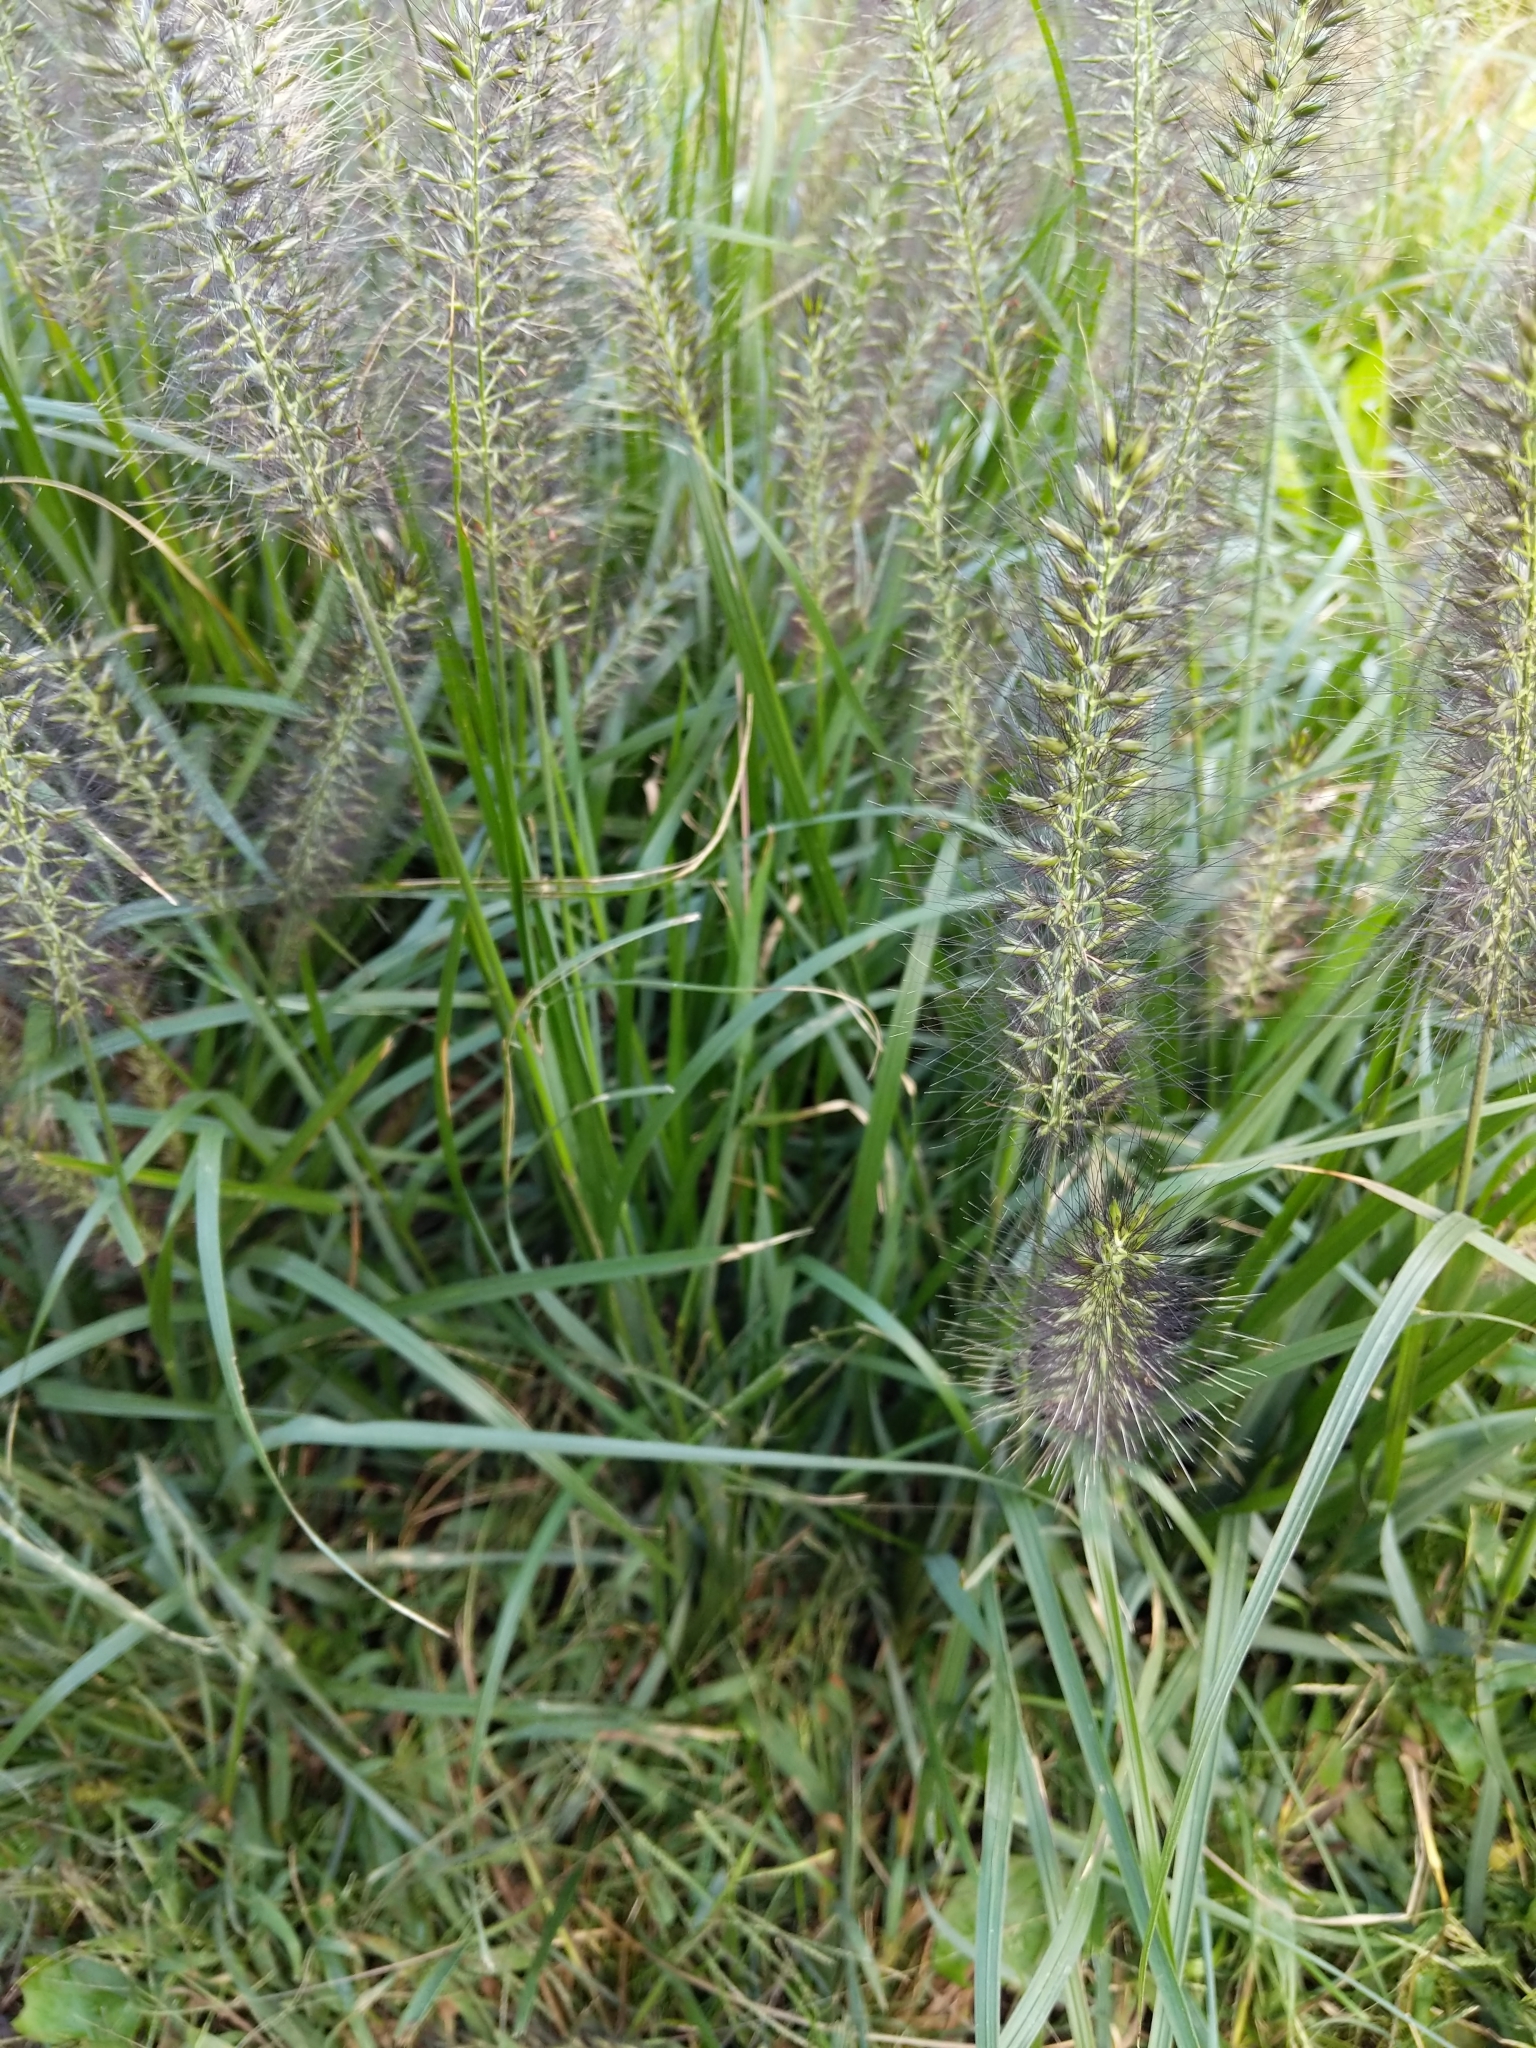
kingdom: Plantae
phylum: Tracheophyta
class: Liliopsida
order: Poales
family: Poaceae
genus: Cenchrus
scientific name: Cenchrus alopecuroides
